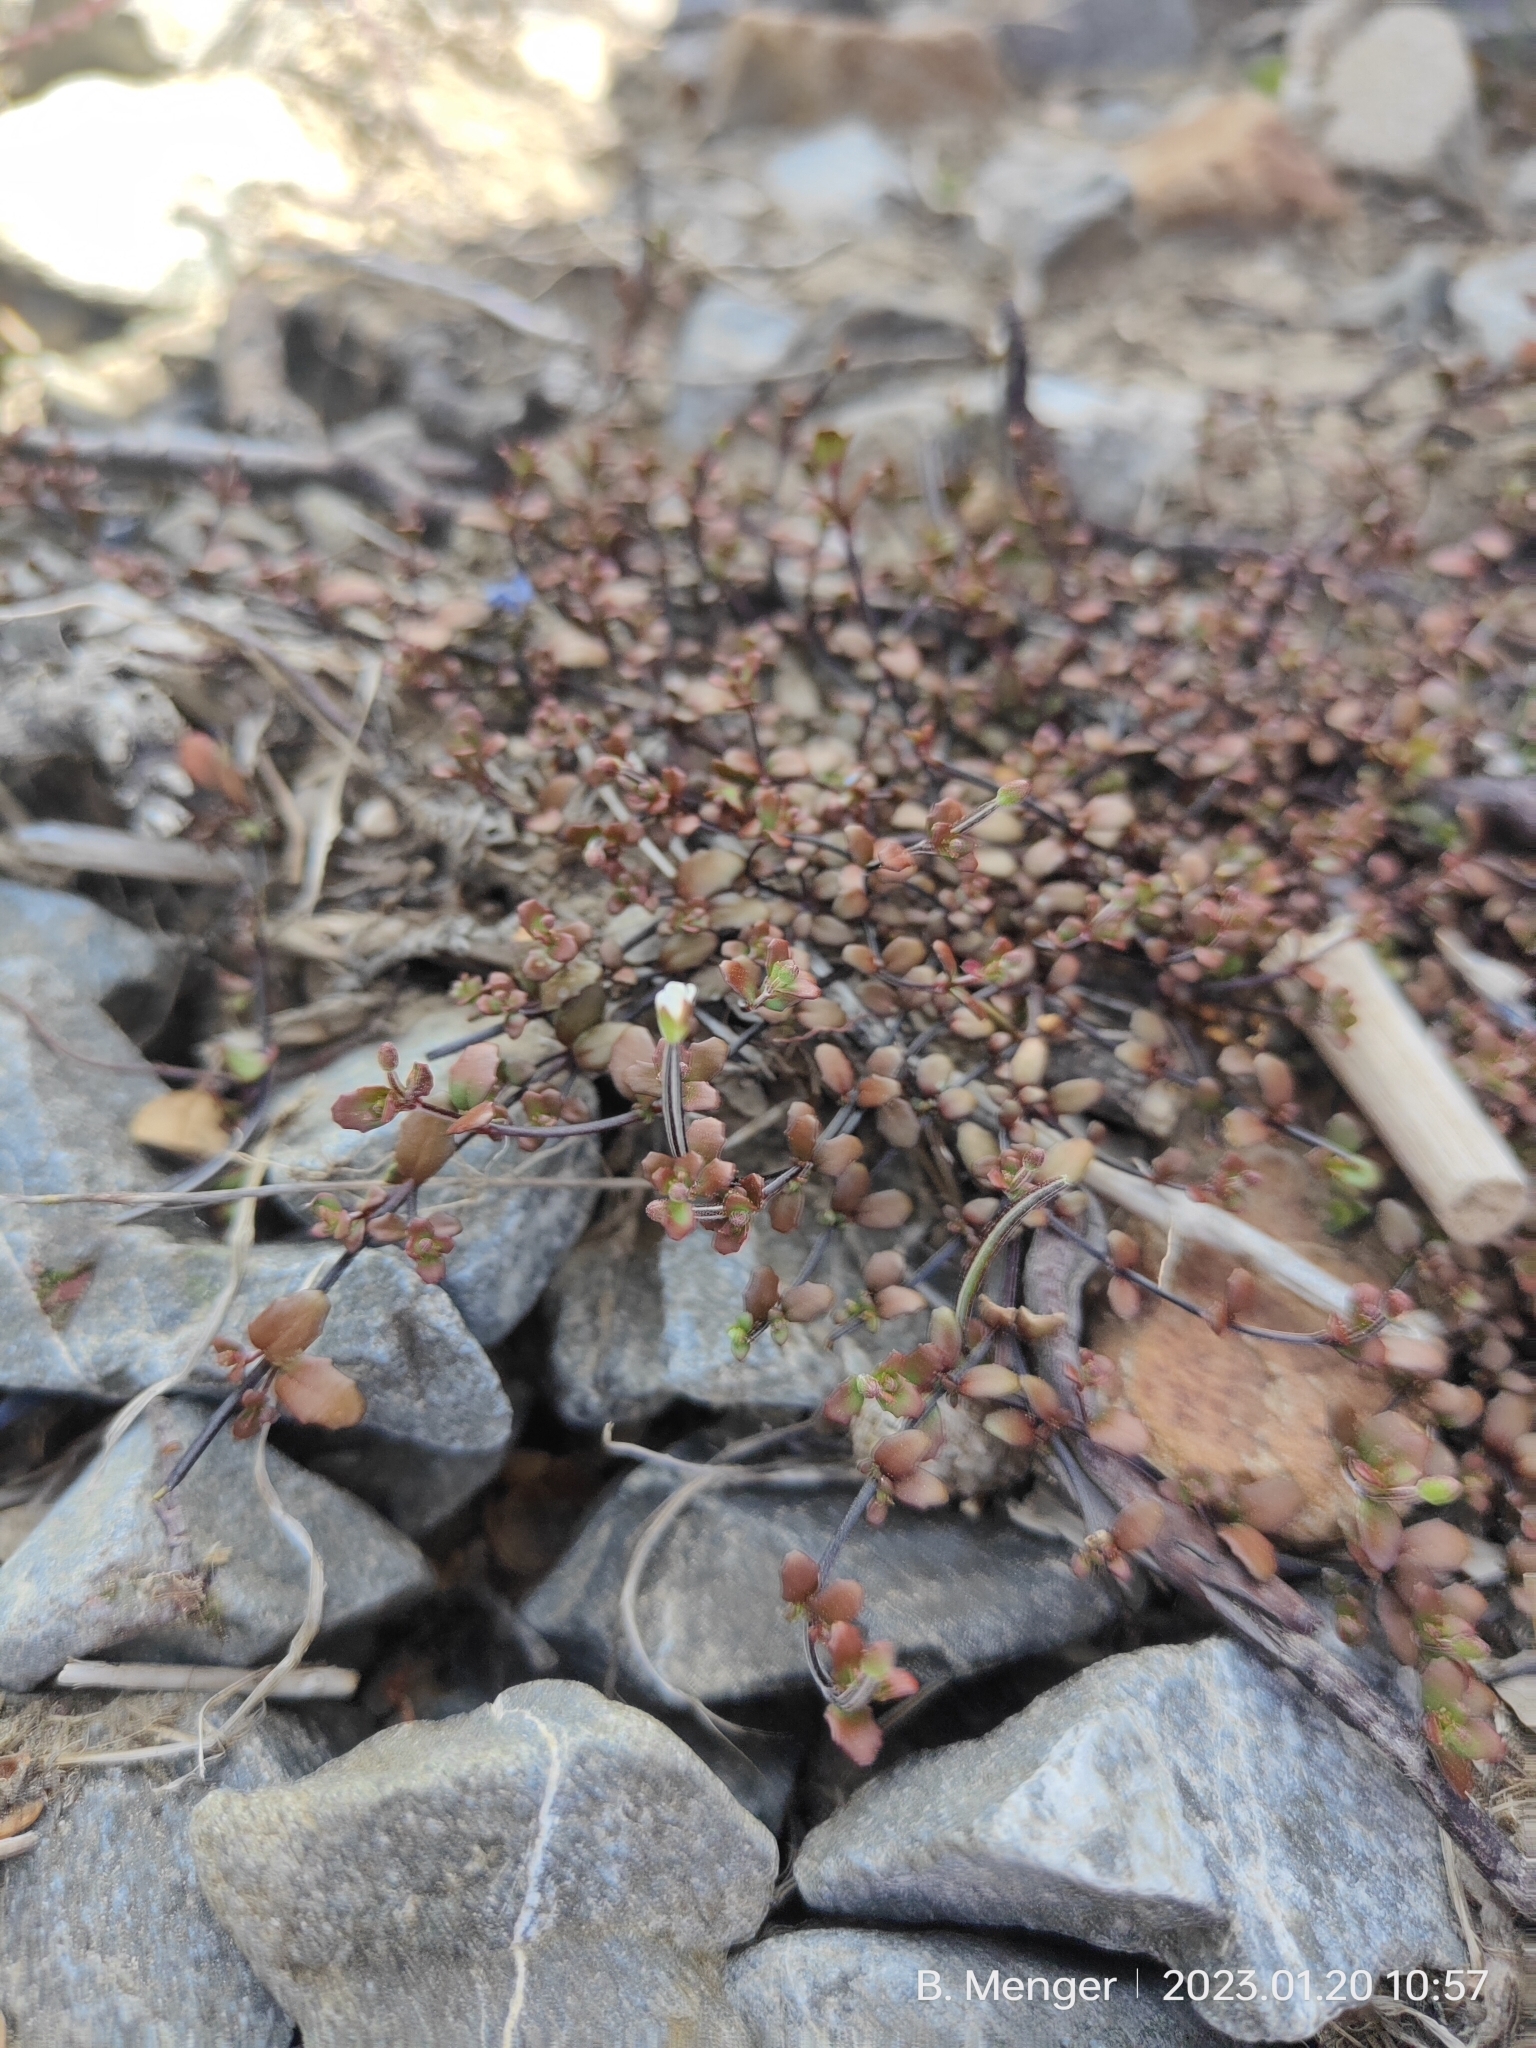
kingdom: Plantae
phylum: Tracheophyta
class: Magnoliopsida
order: Myrtales
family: Onagraceae
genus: Epilobium
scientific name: Epilobium microphyllum
